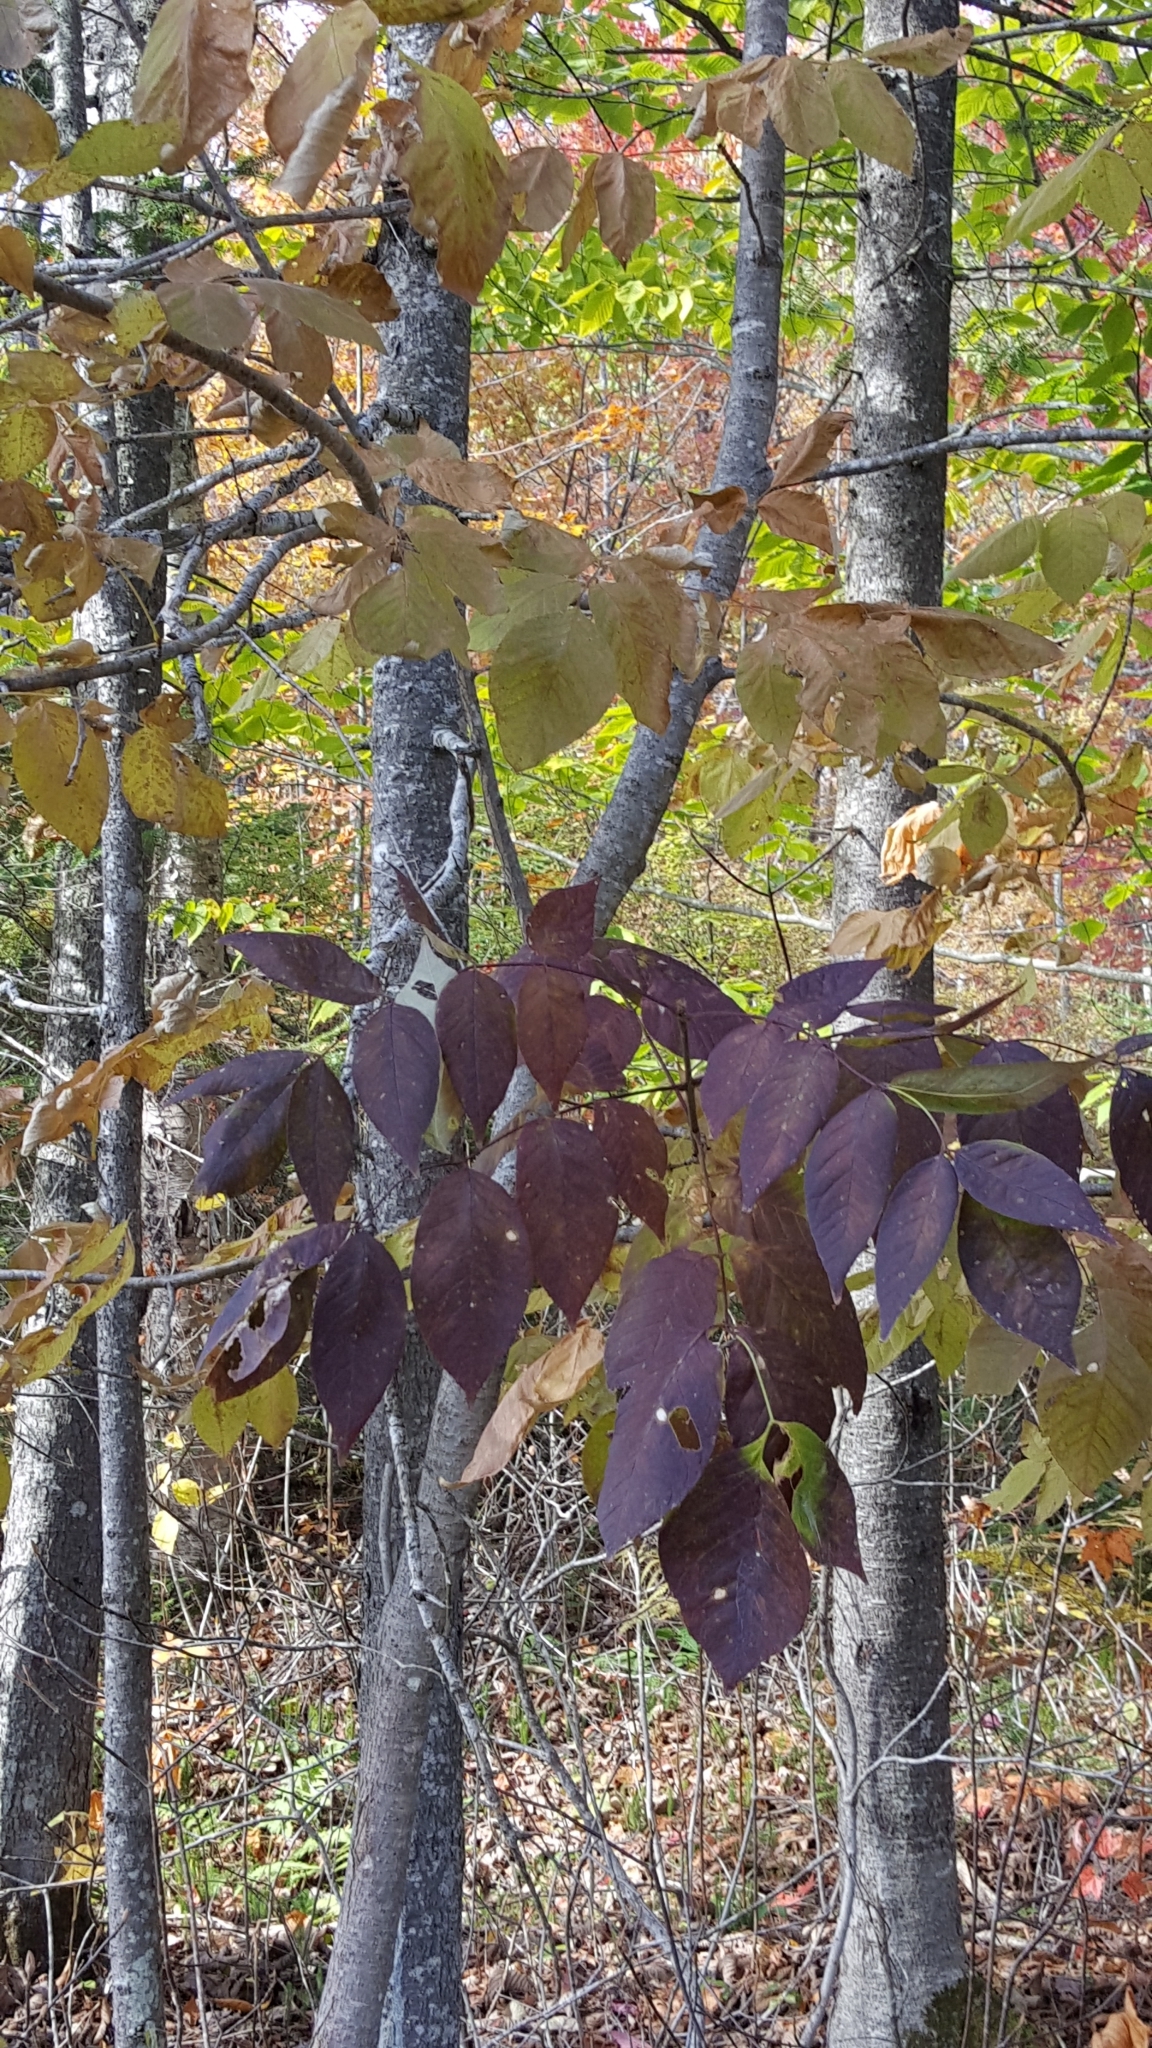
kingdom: Plantae
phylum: Tracheophyta
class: Magnoliopsida
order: Lamiales
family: Oleaceae
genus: Fraxinus
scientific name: Fraxinus americana
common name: White ash
